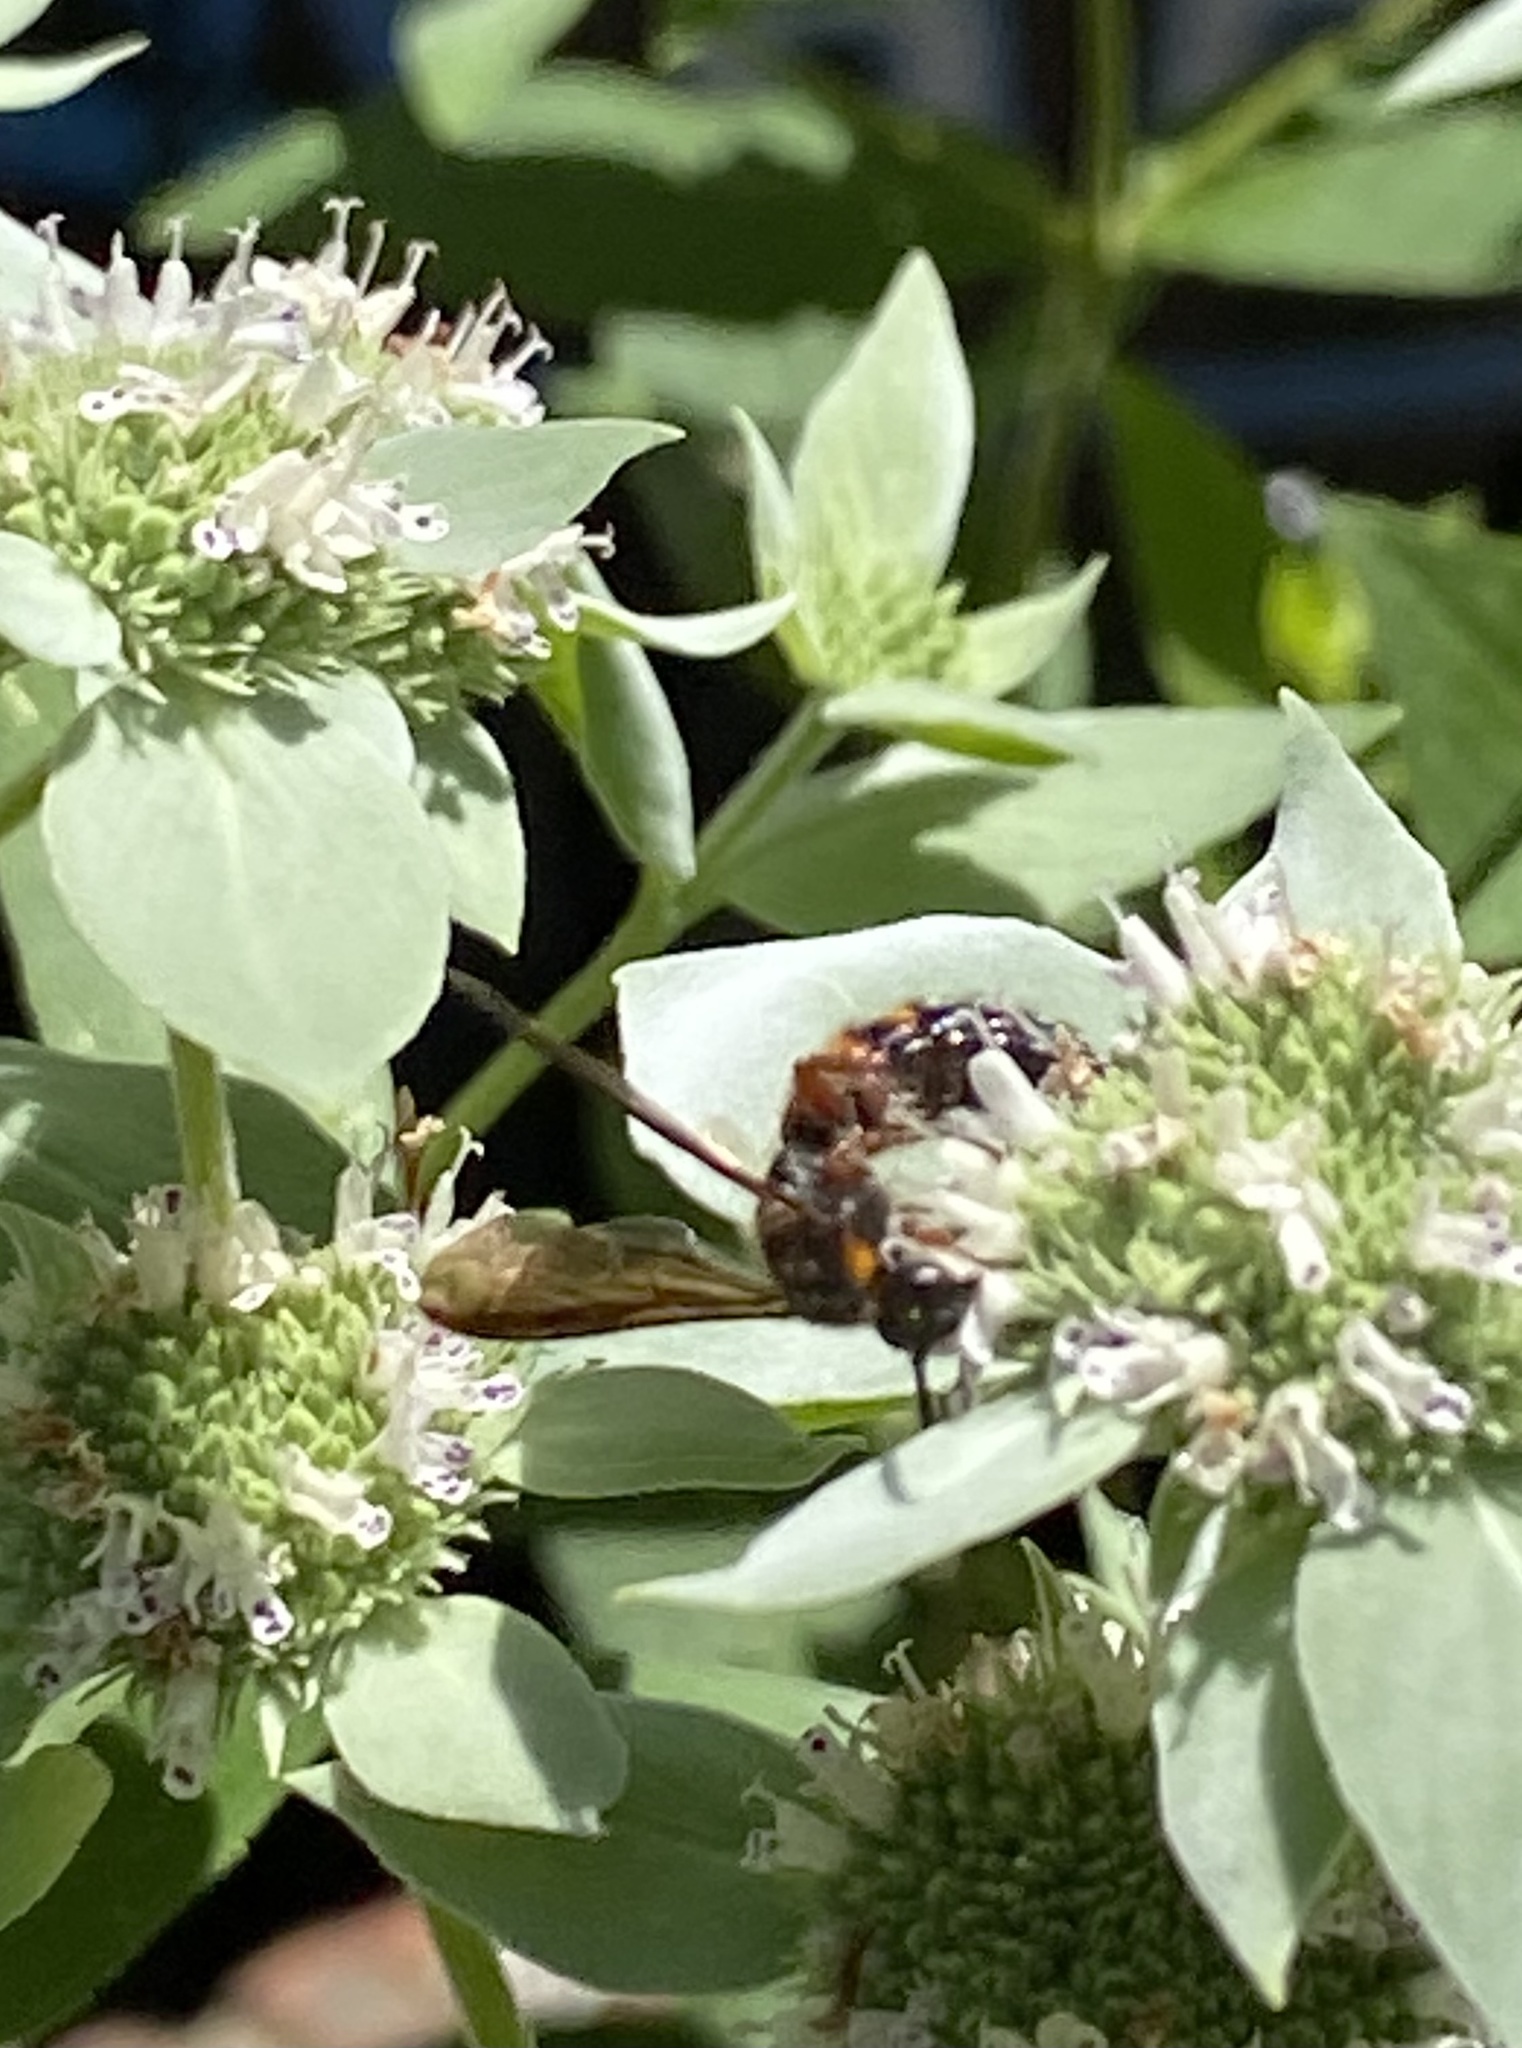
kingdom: Animalia
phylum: Arthropoda
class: Insecta
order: Hymenoptera
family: Scoliidae
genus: Scolia
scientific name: Scolia nobilitata
